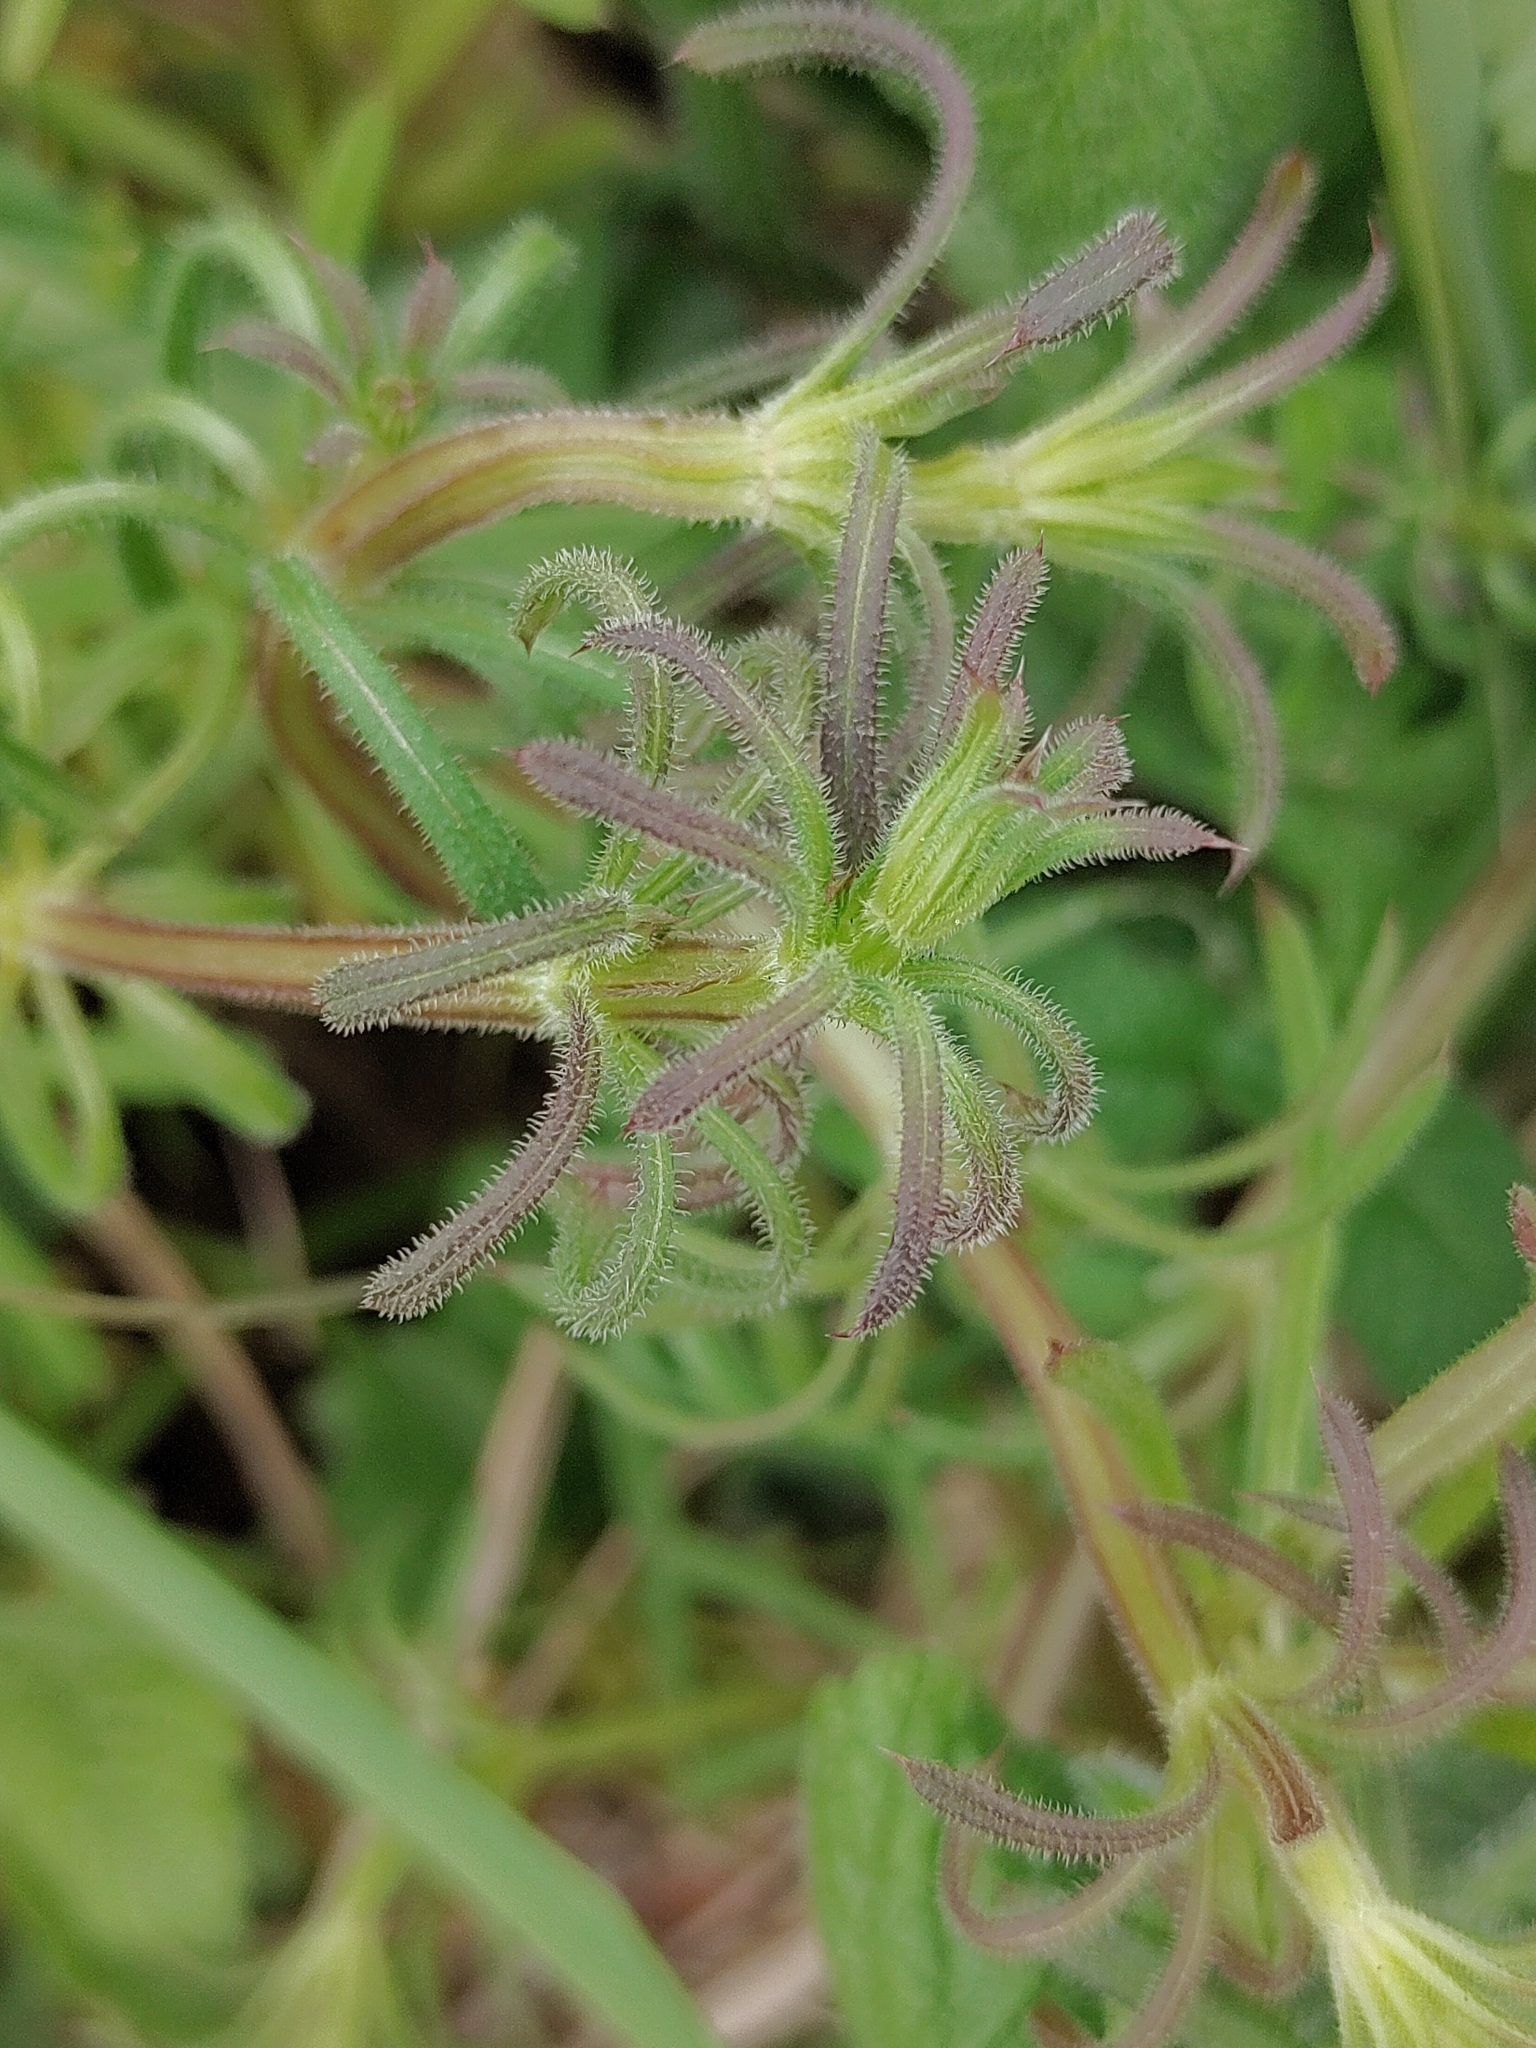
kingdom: Plantae
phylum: Tracheophyta
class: Magnoliopsida
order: Gentianales
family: Rubiaceae
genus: Galium
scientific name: Galium aparine
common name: Cleavers
